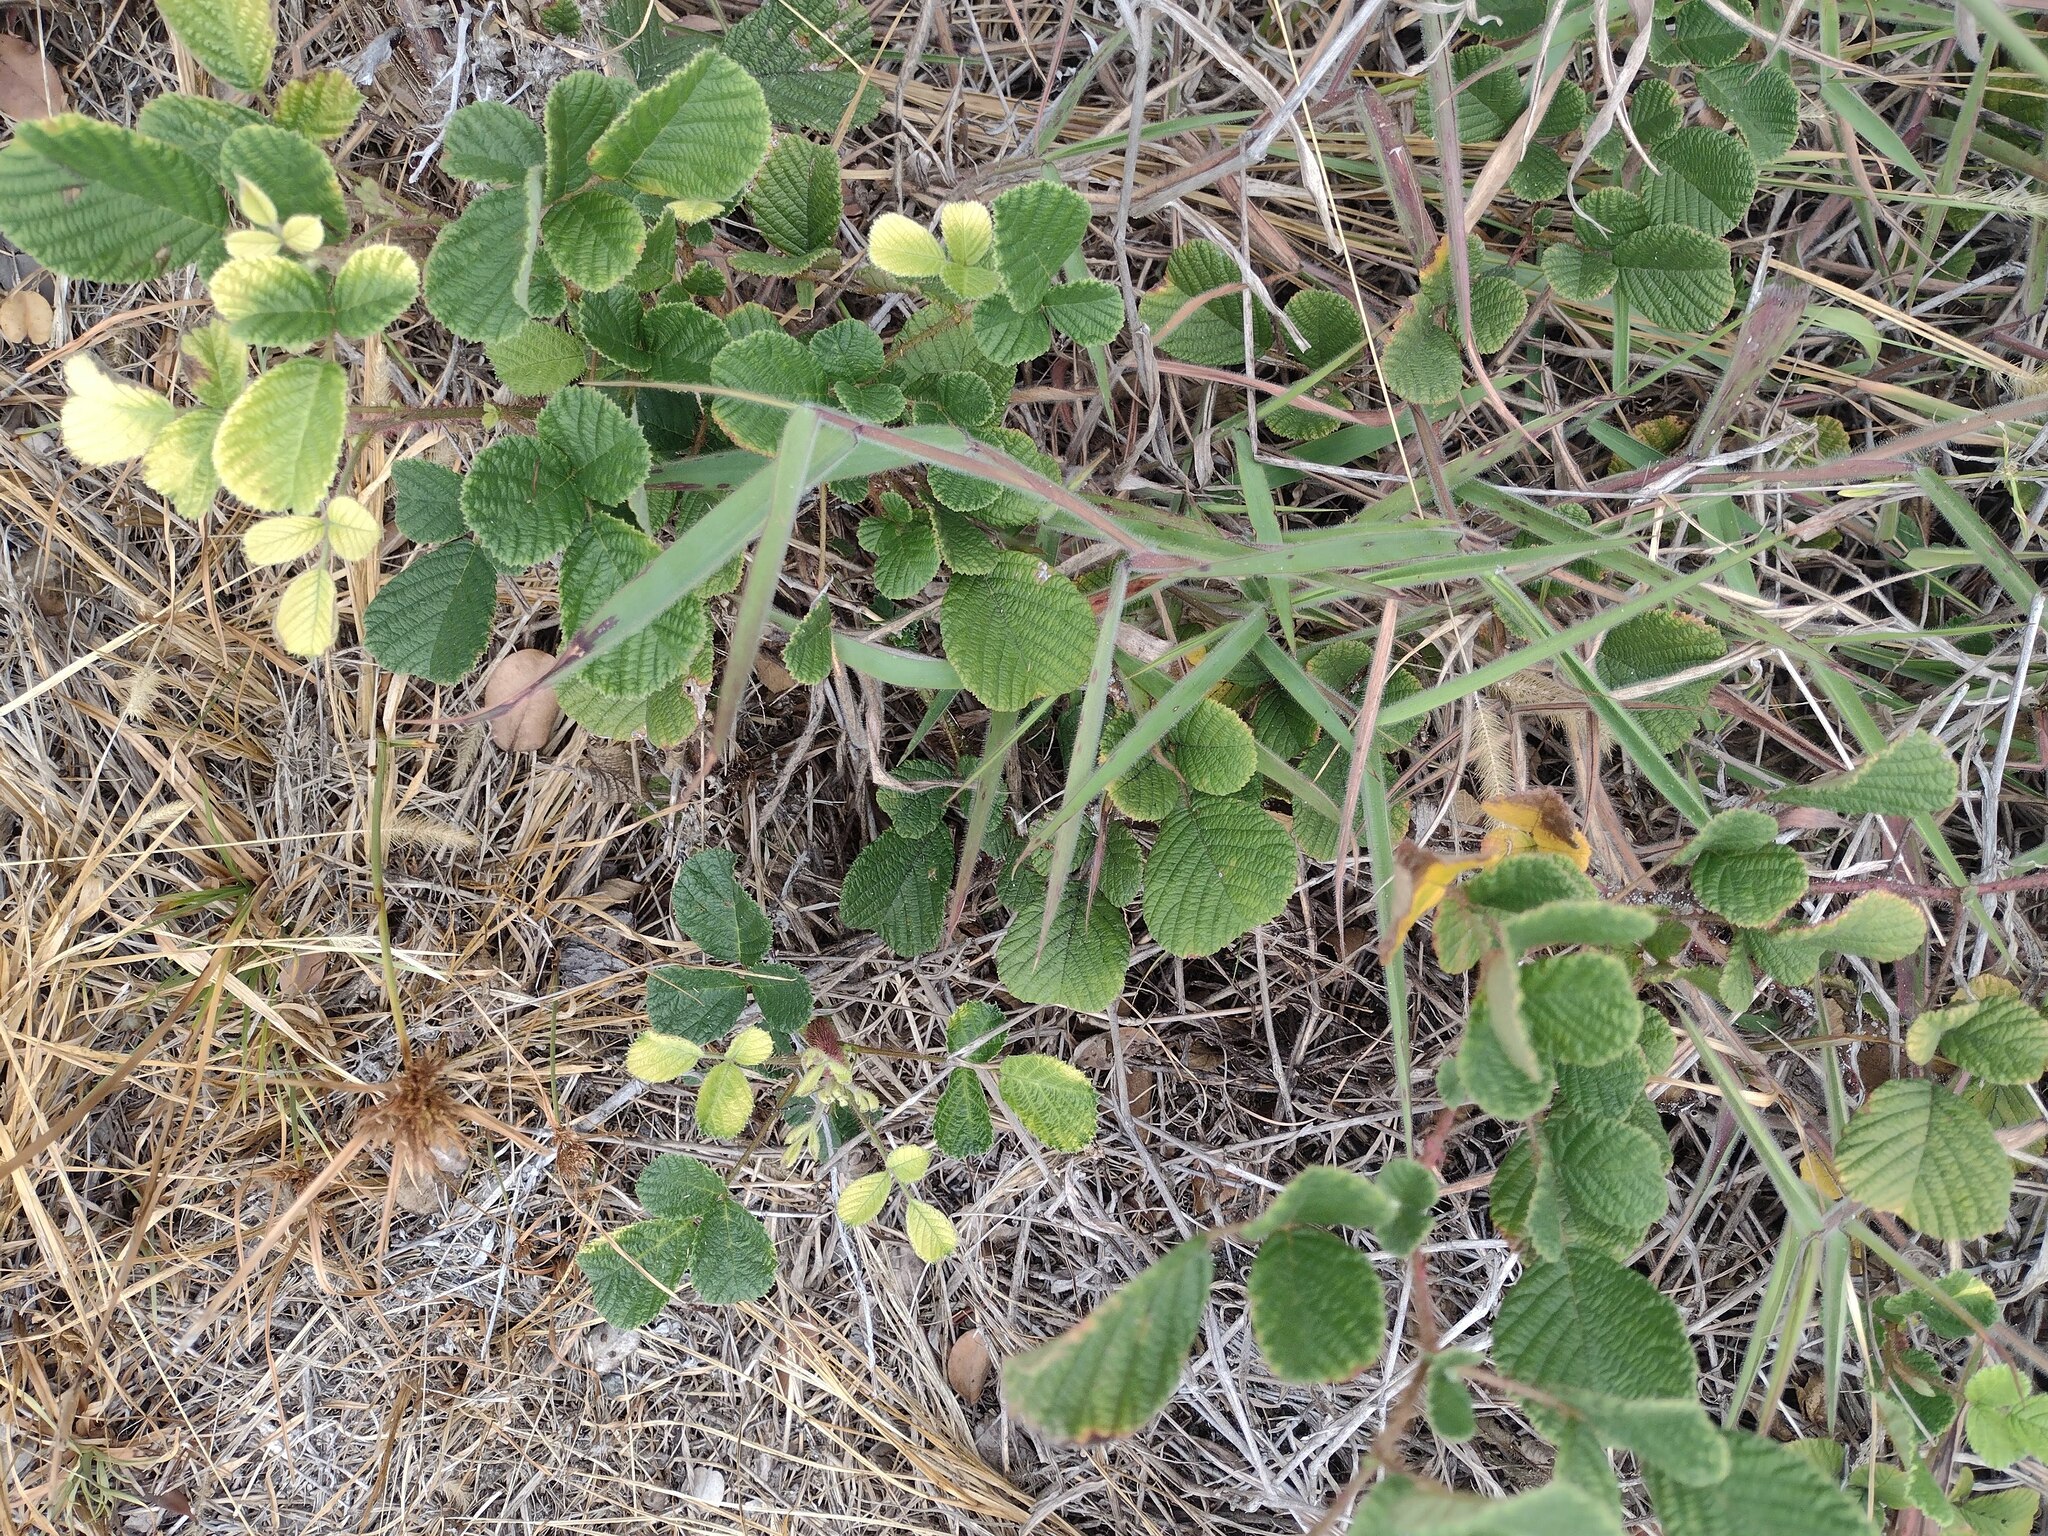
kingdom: Plantae
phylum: Tracheophyta
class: Magnoliopsida
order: Rosales
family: Rosaceae
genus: Rubus
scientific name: Rubus ellipticus
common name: Cheeseberry
